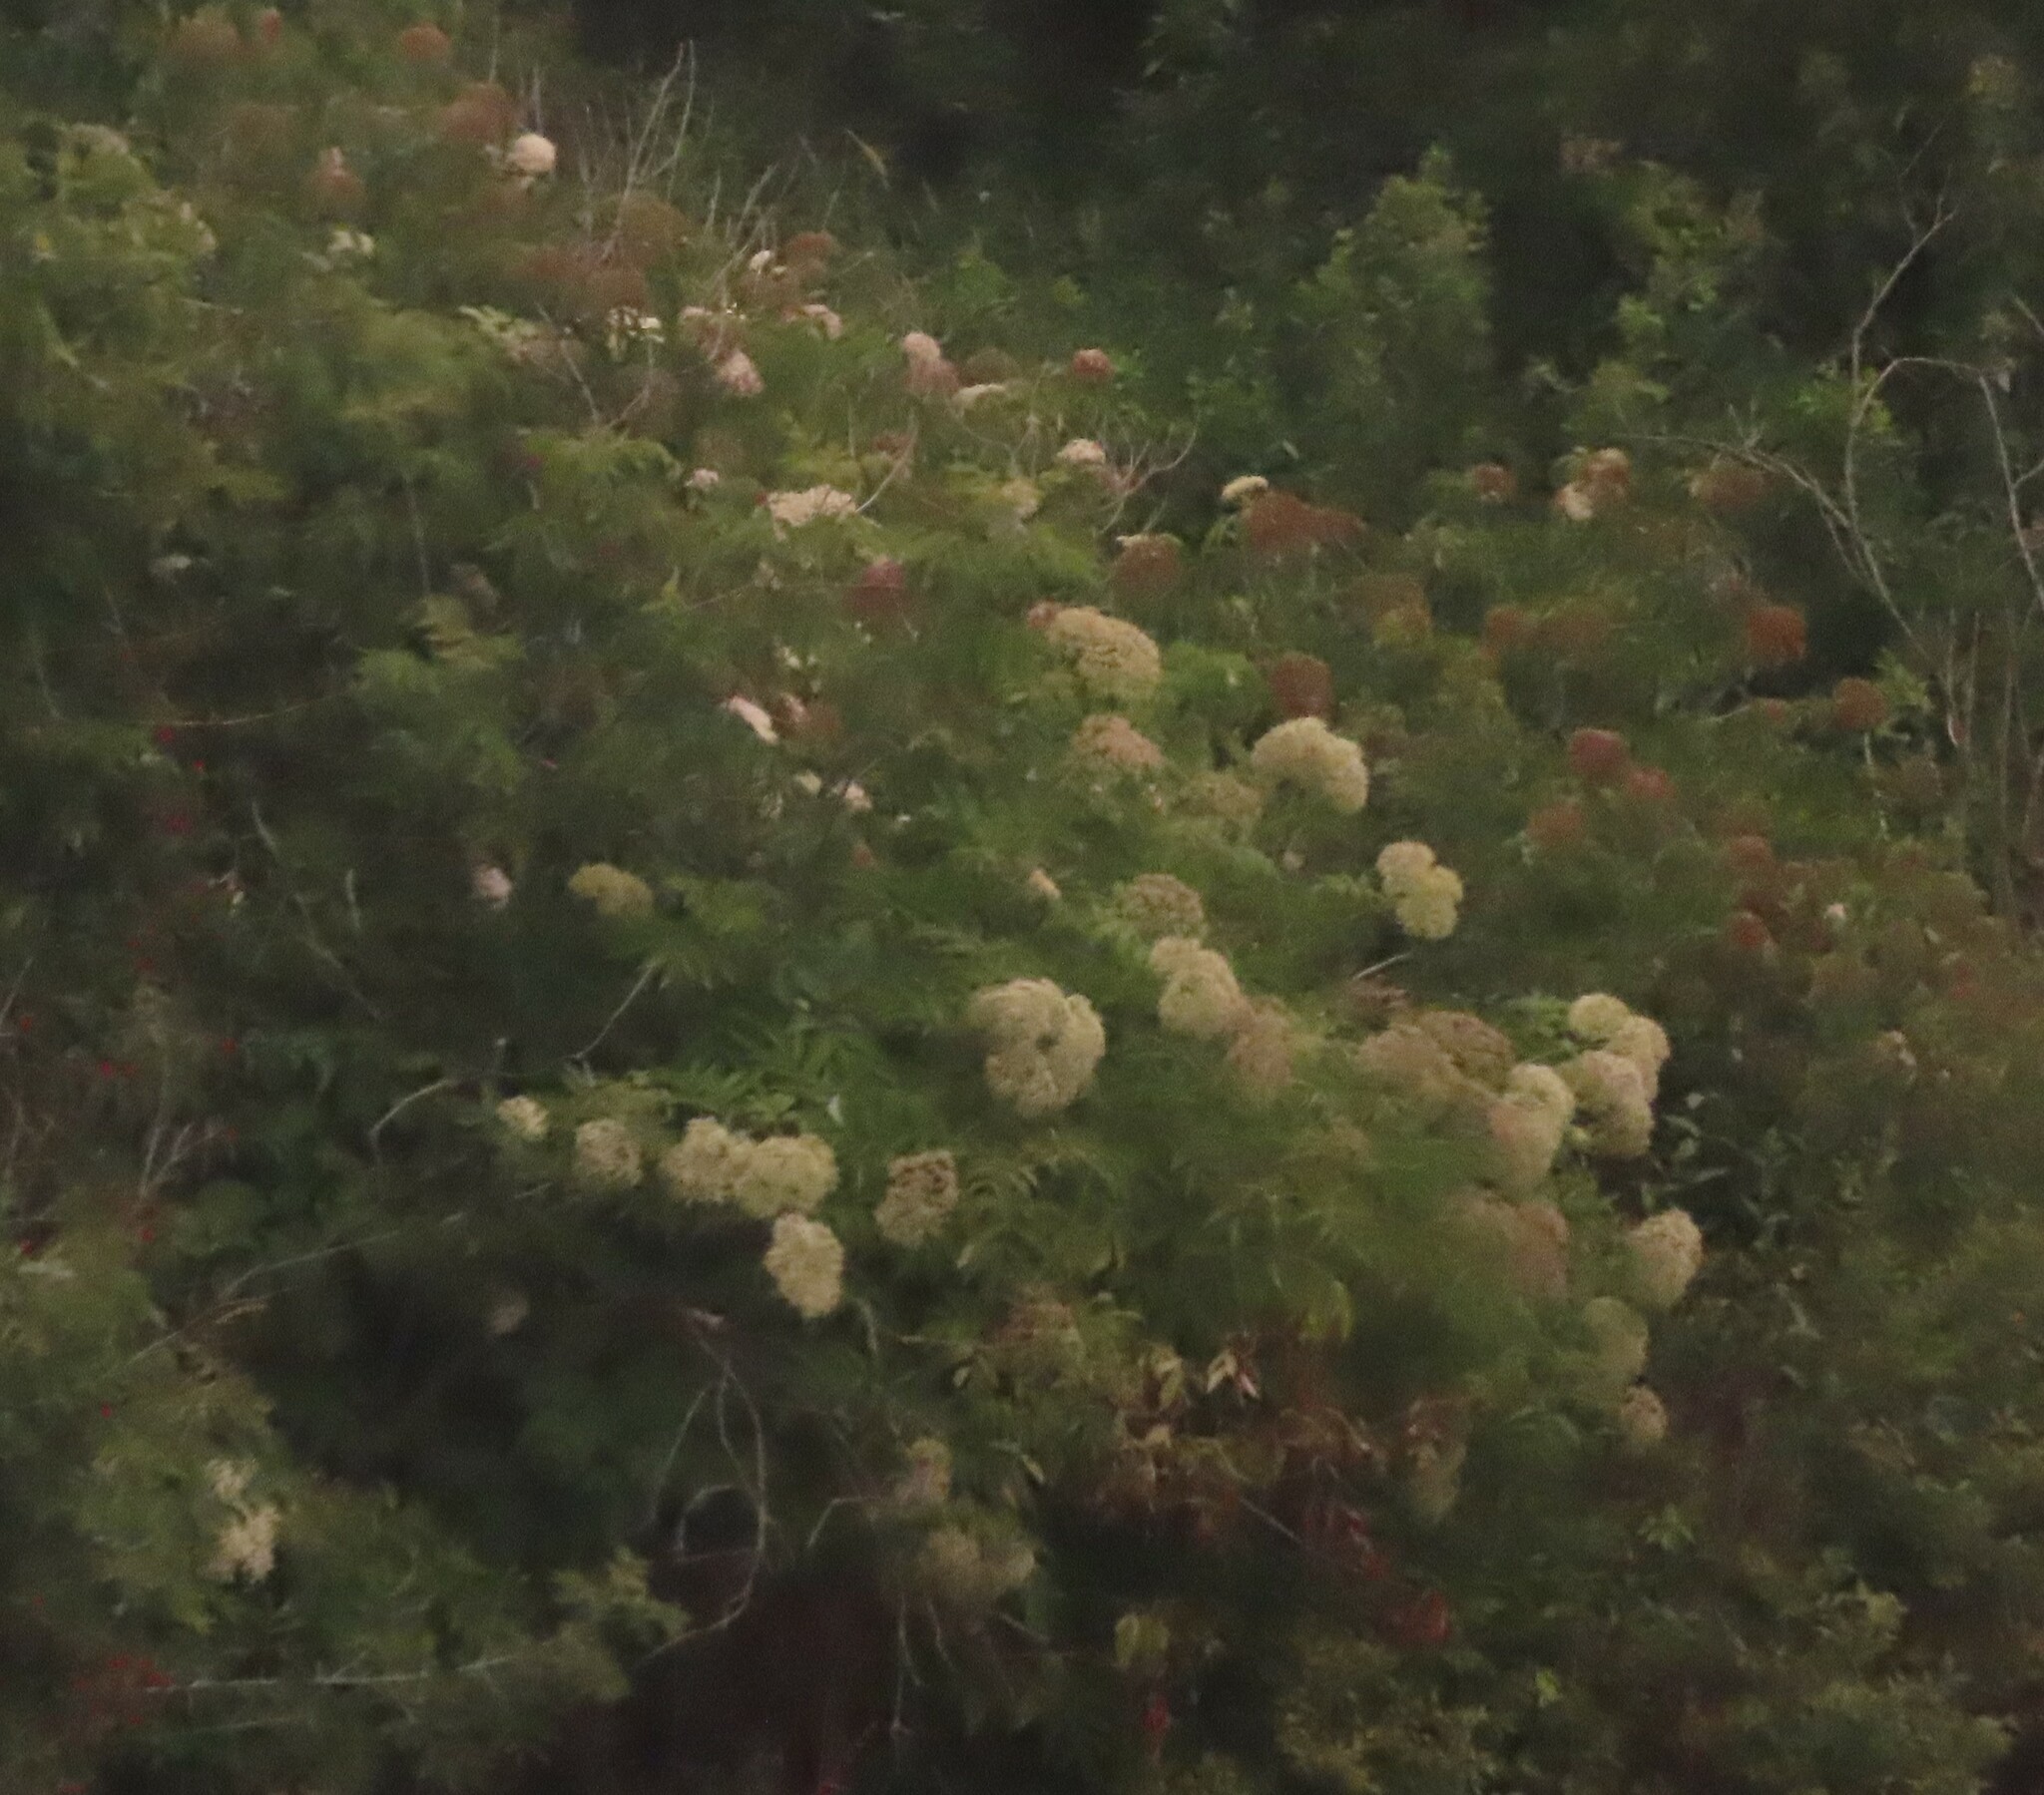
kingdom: Plantae
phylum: Tracheophyta
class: Magnoliopsida
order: Dipsacales
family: Viburnaceae
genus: Sambucus
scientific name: Sambucus canadensis
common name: American elder
